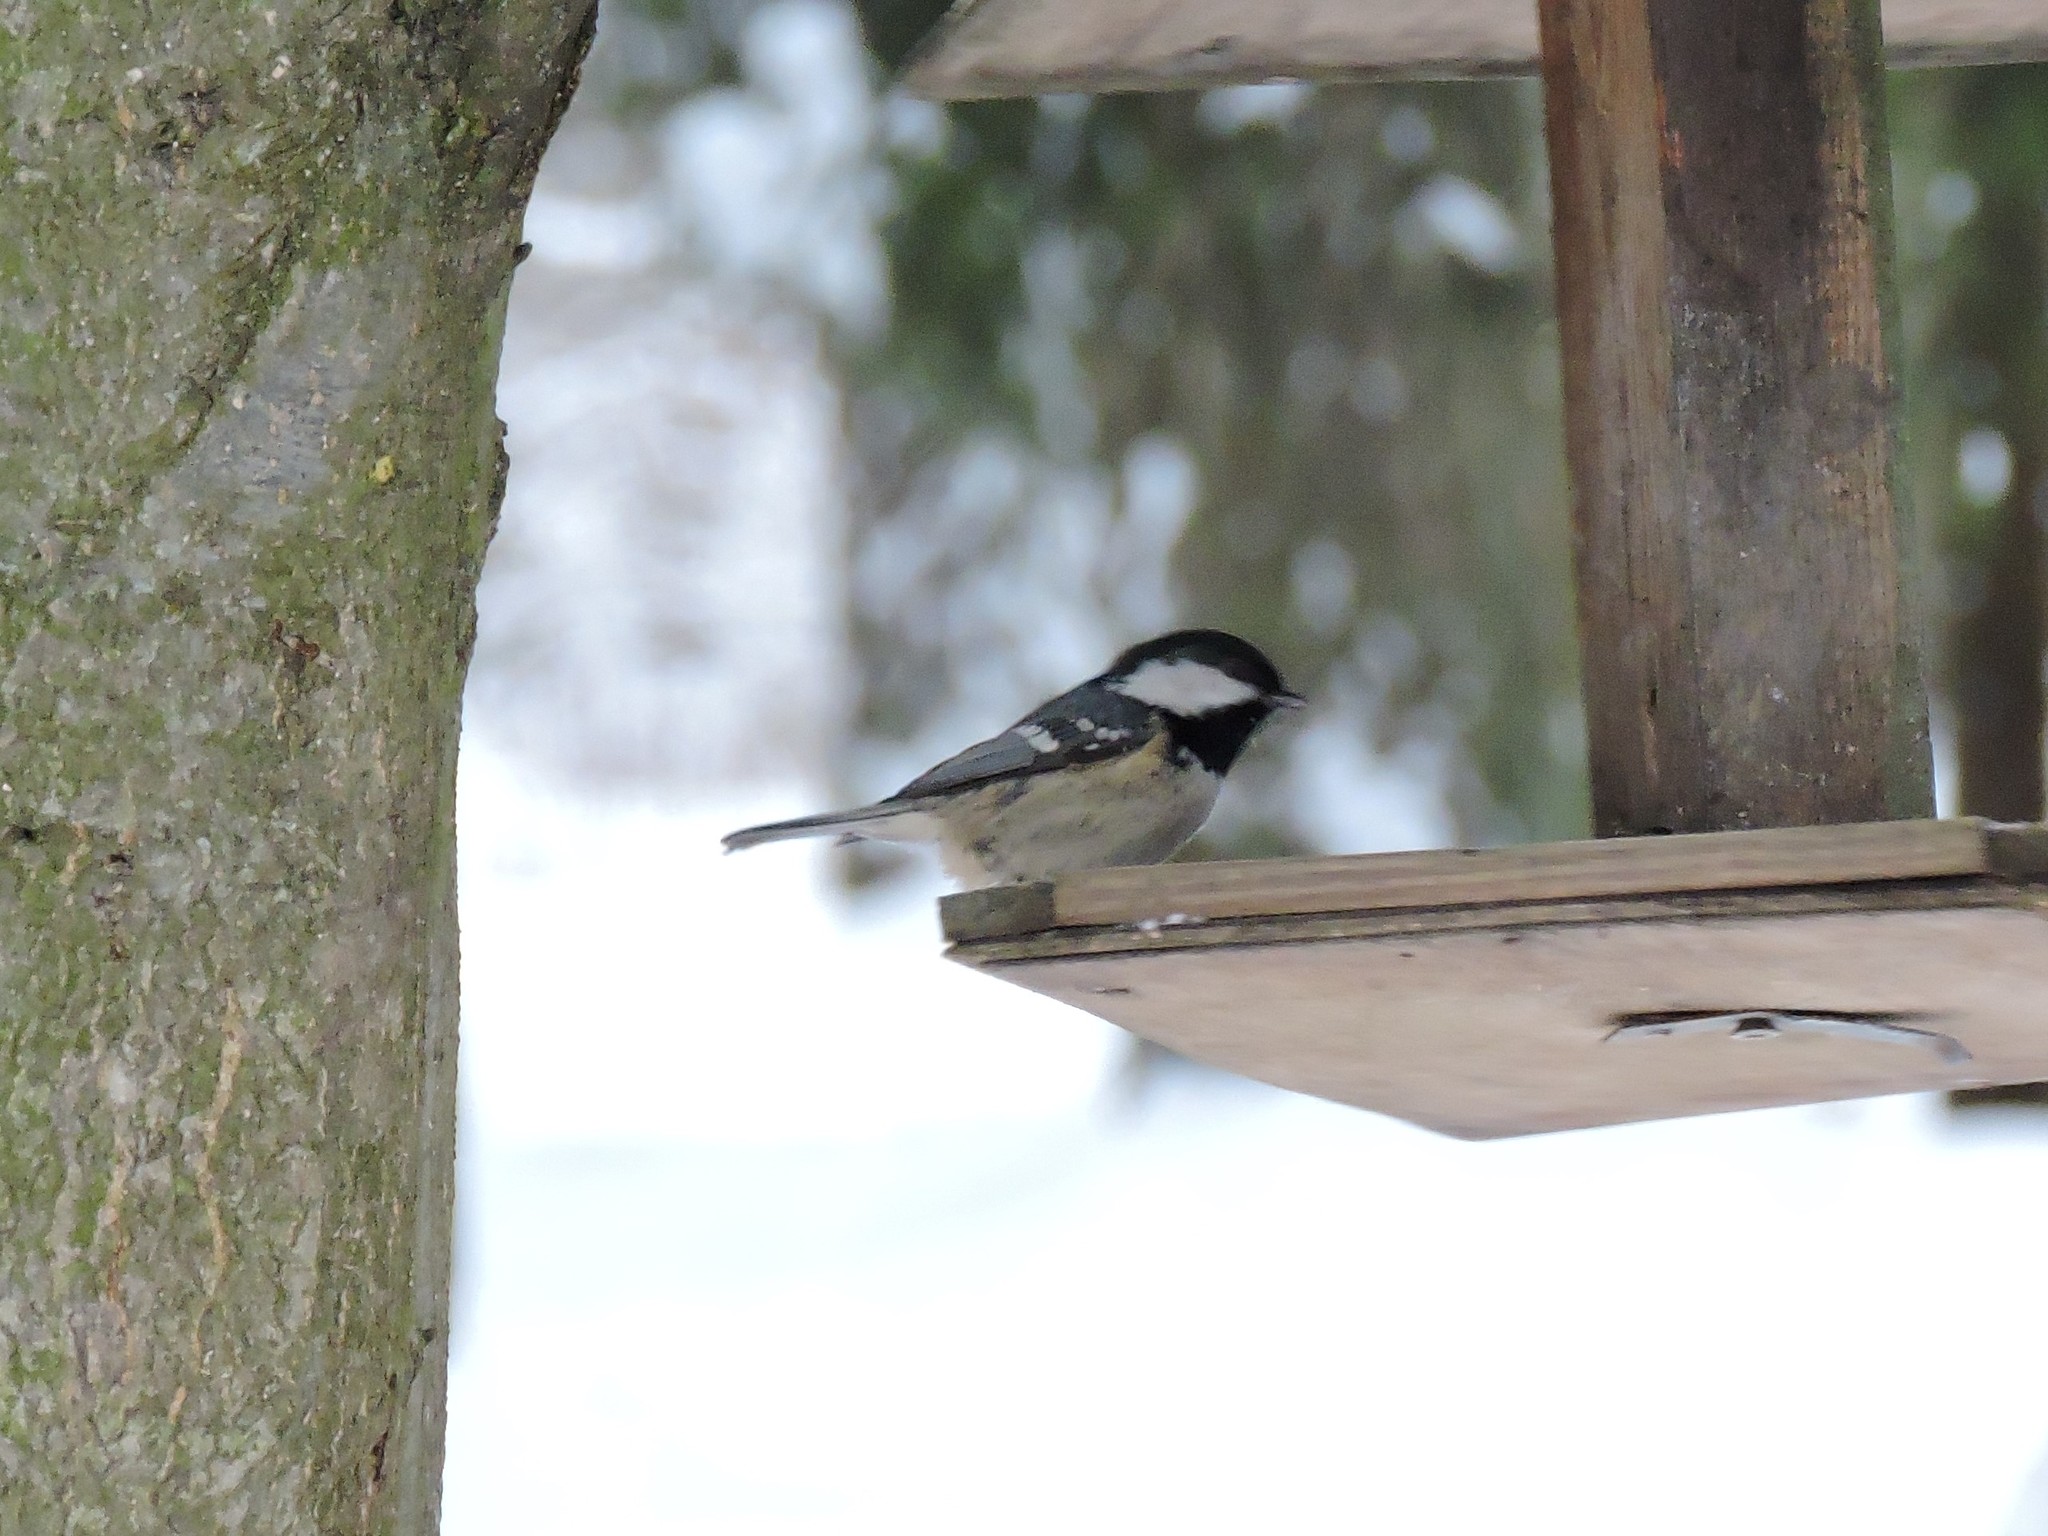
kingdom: Animalia
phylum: Chordata
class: Aves
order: Passeriformes
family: Paridae
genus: Periparus
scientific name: Periparus ater
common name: Coal tit
